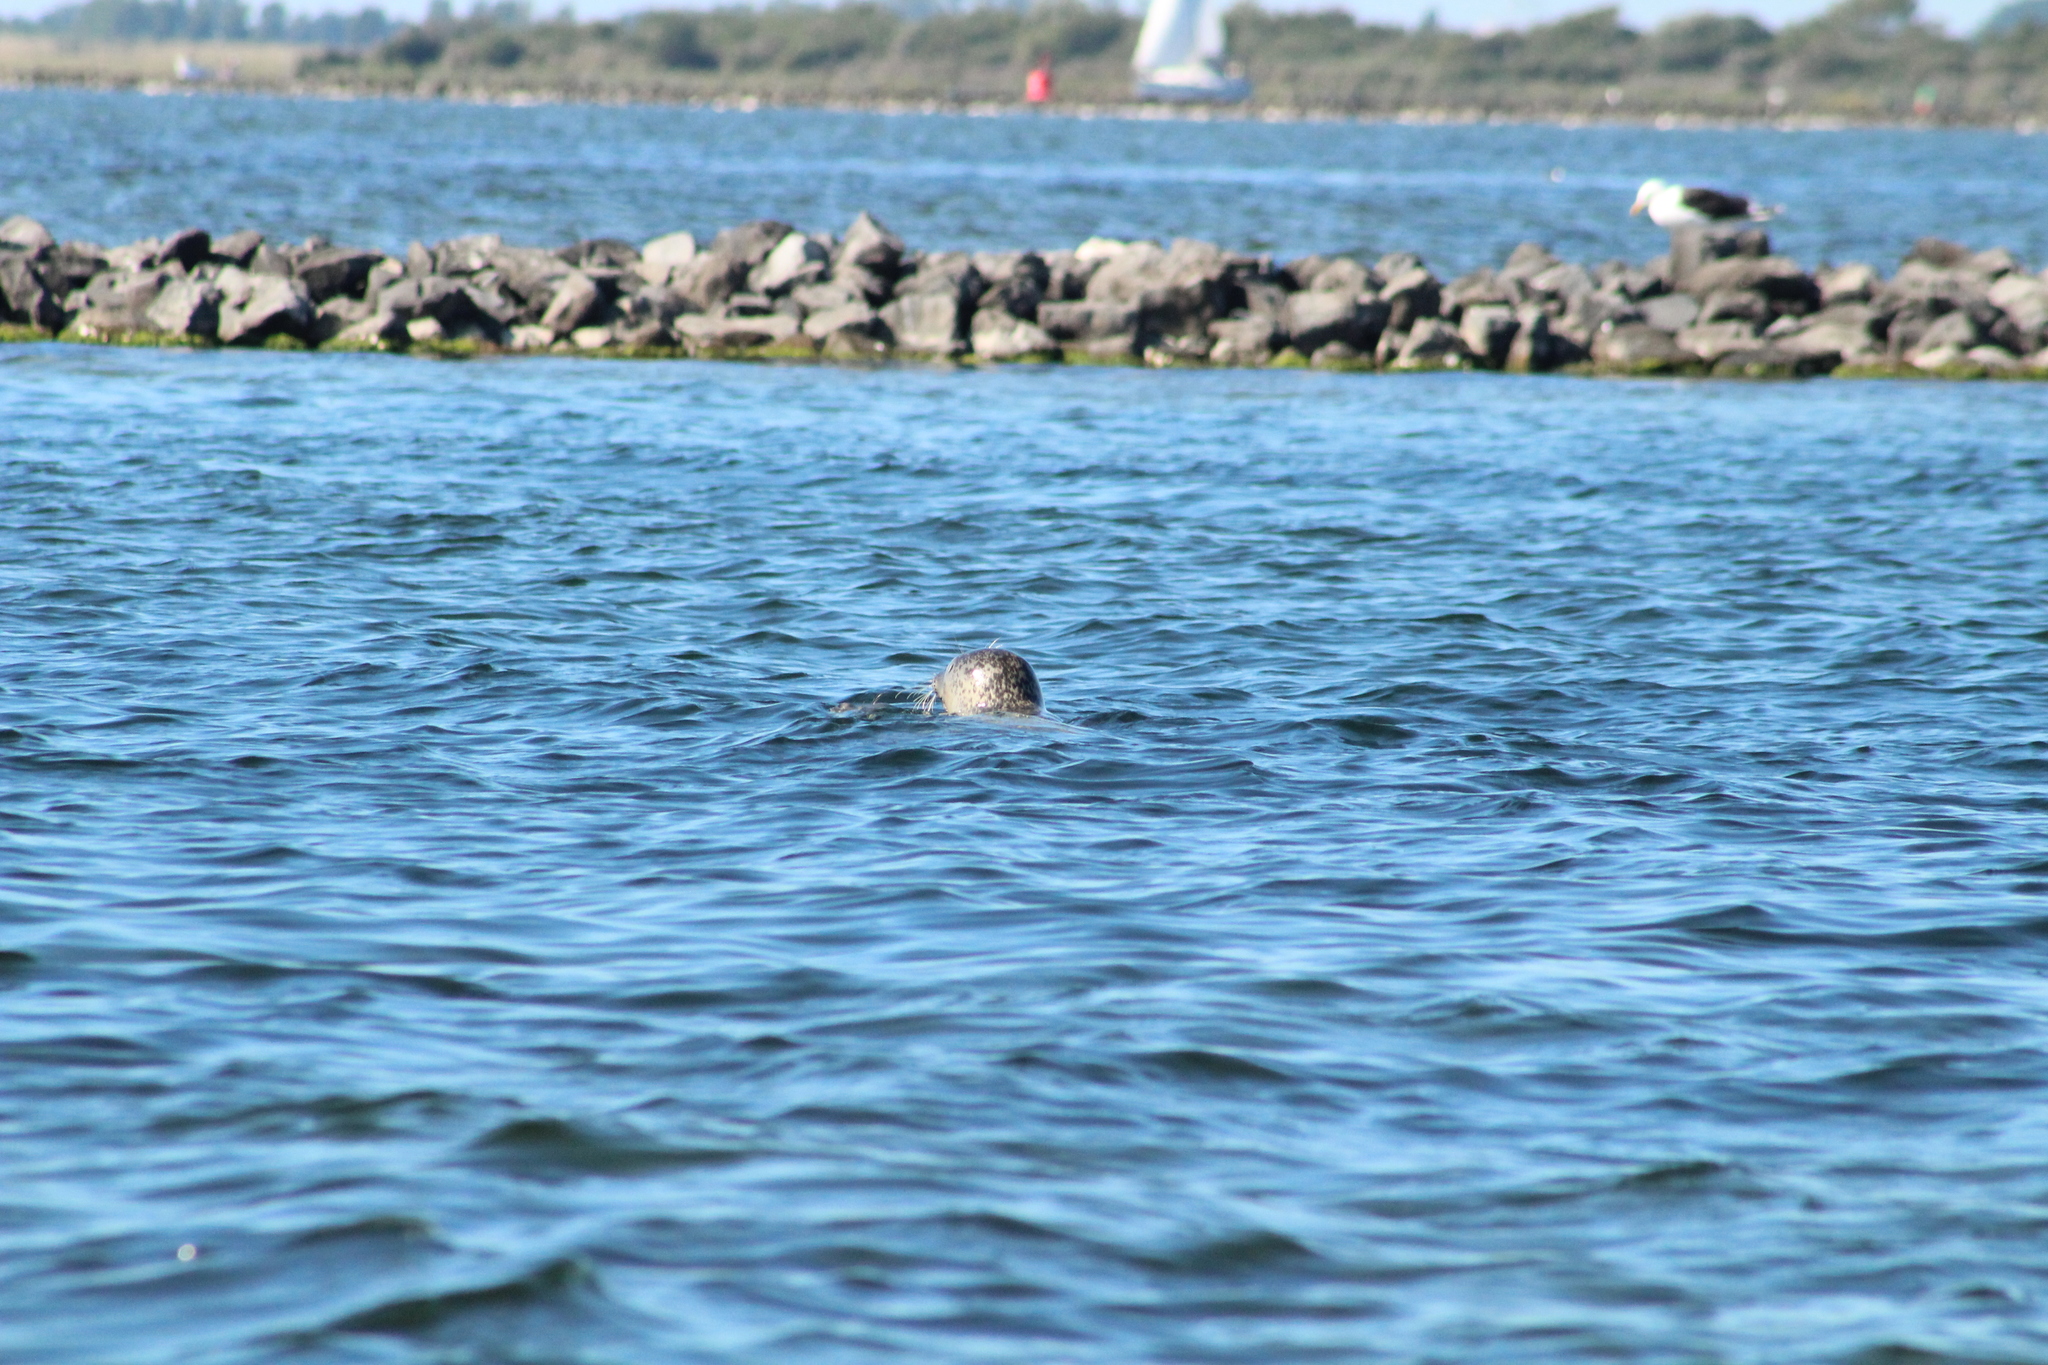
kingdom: Animalia
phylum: Chordata
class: Mammalia
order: Carnivora
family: Phocidae
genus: Phoca
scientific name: Phoca vitulina
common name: Harbor seal
